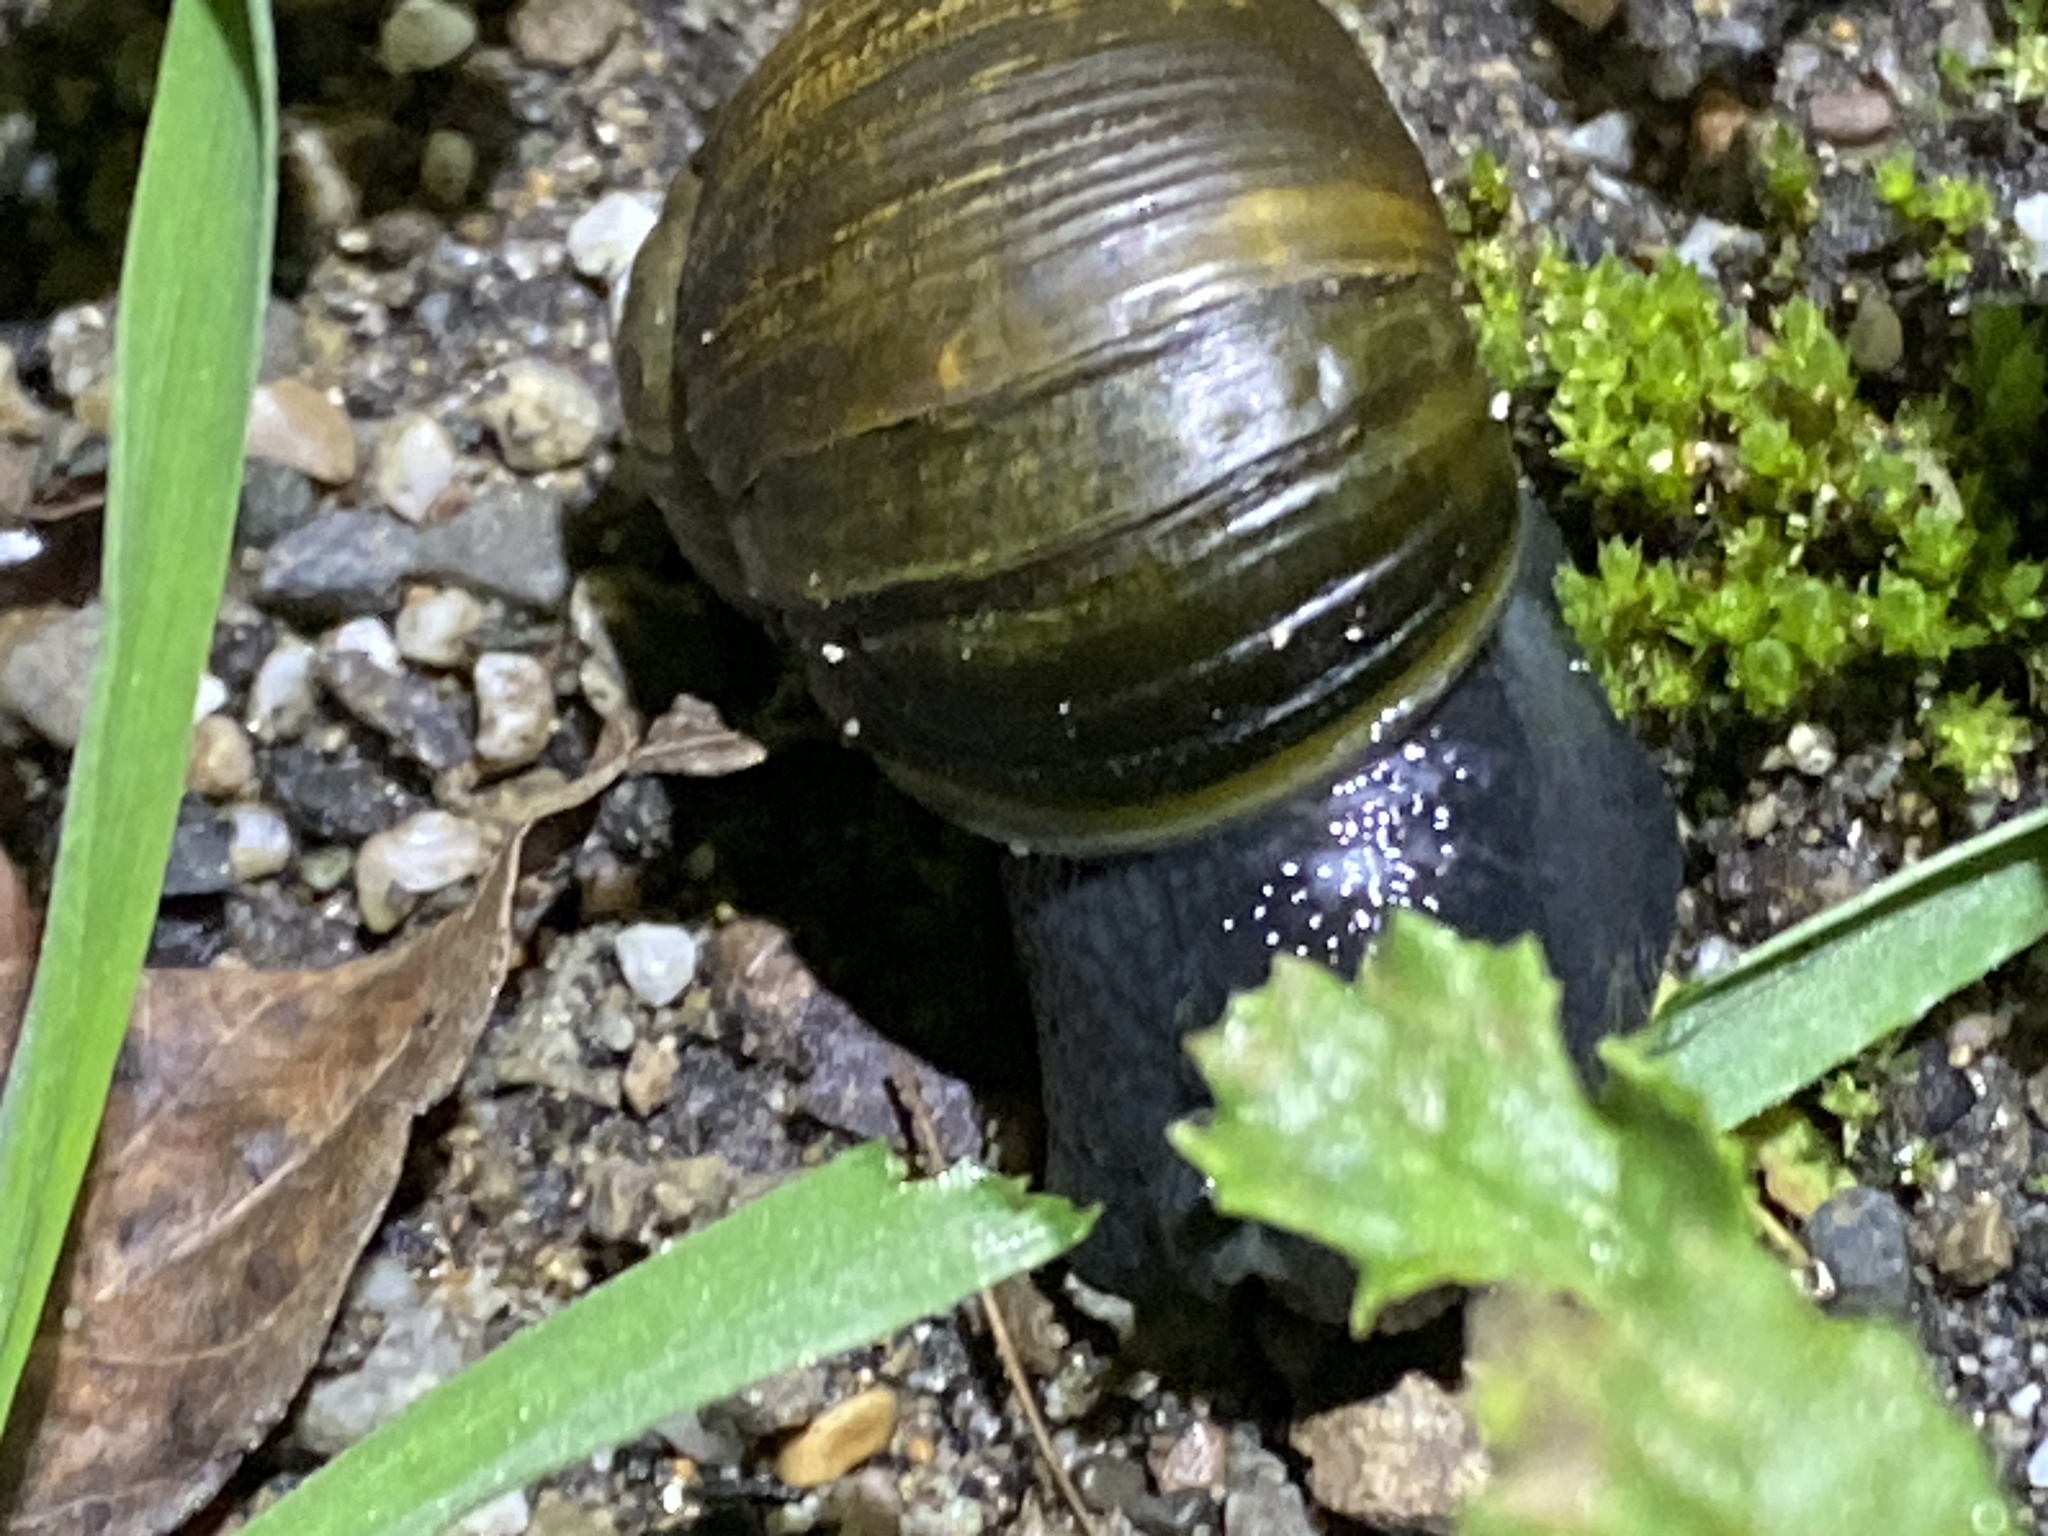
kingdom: Animalia
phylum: Mollusca
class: Gastropoda
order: Stylommatophora
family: Helicidae
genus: Cantareus
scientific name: Cantareus apertus
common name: Green gardensnail
